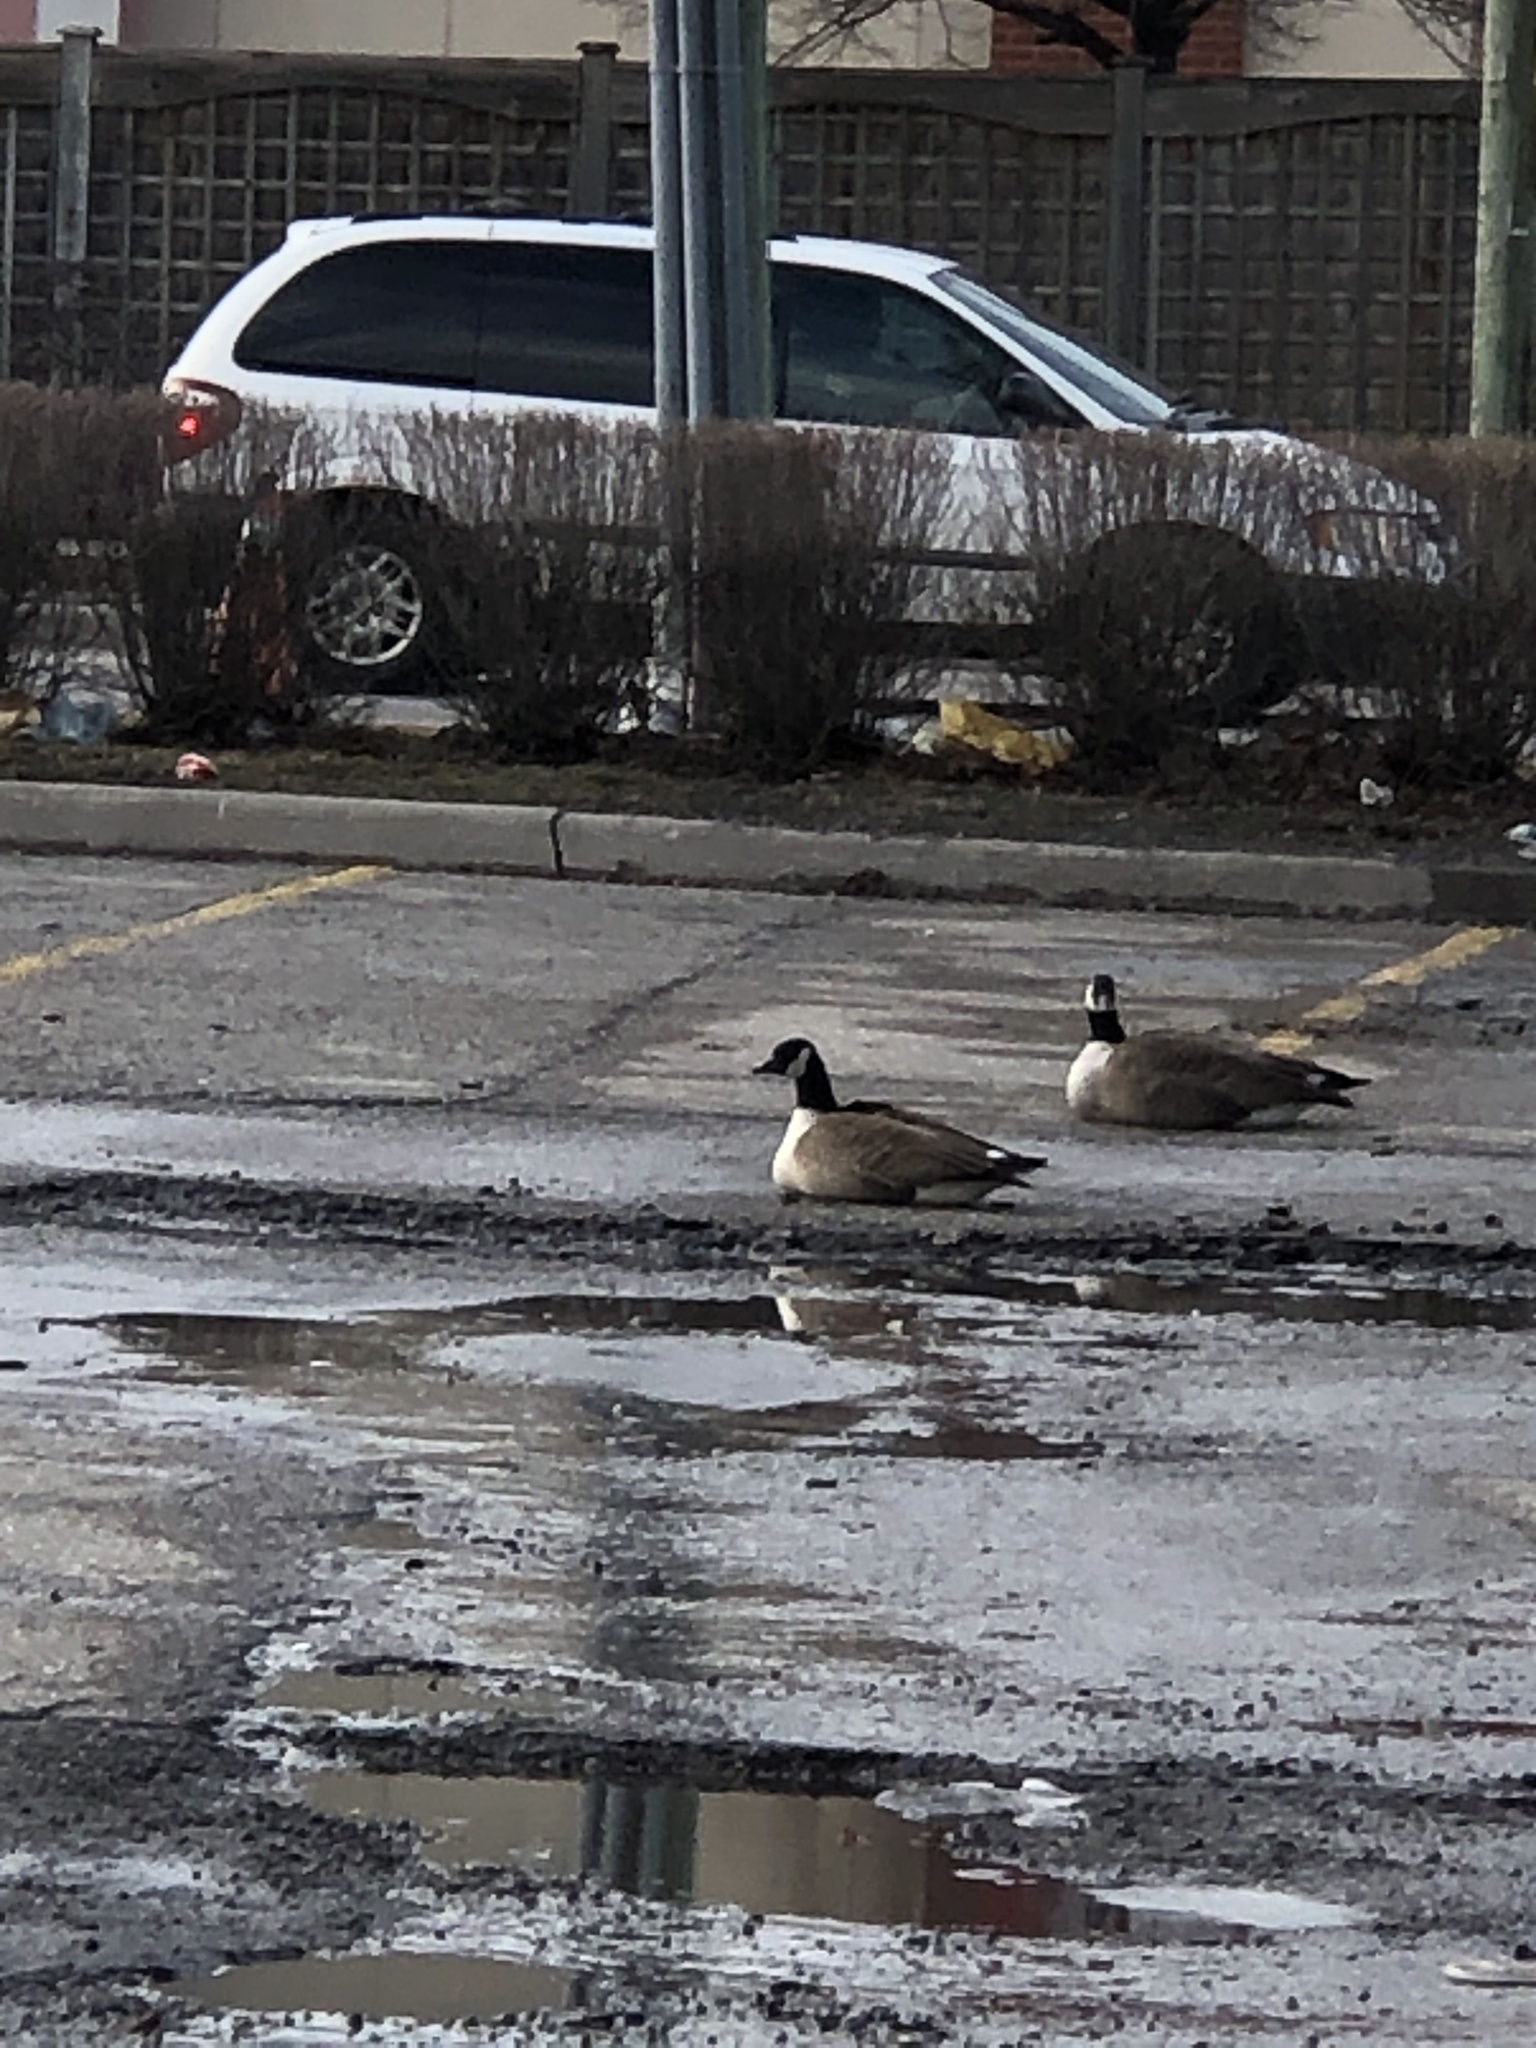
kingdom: Animalia
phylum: Chordata
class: Aves
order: Anseriformes
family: Anatidae
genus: Branta
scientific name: Branta canadensis
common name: Canada goose
